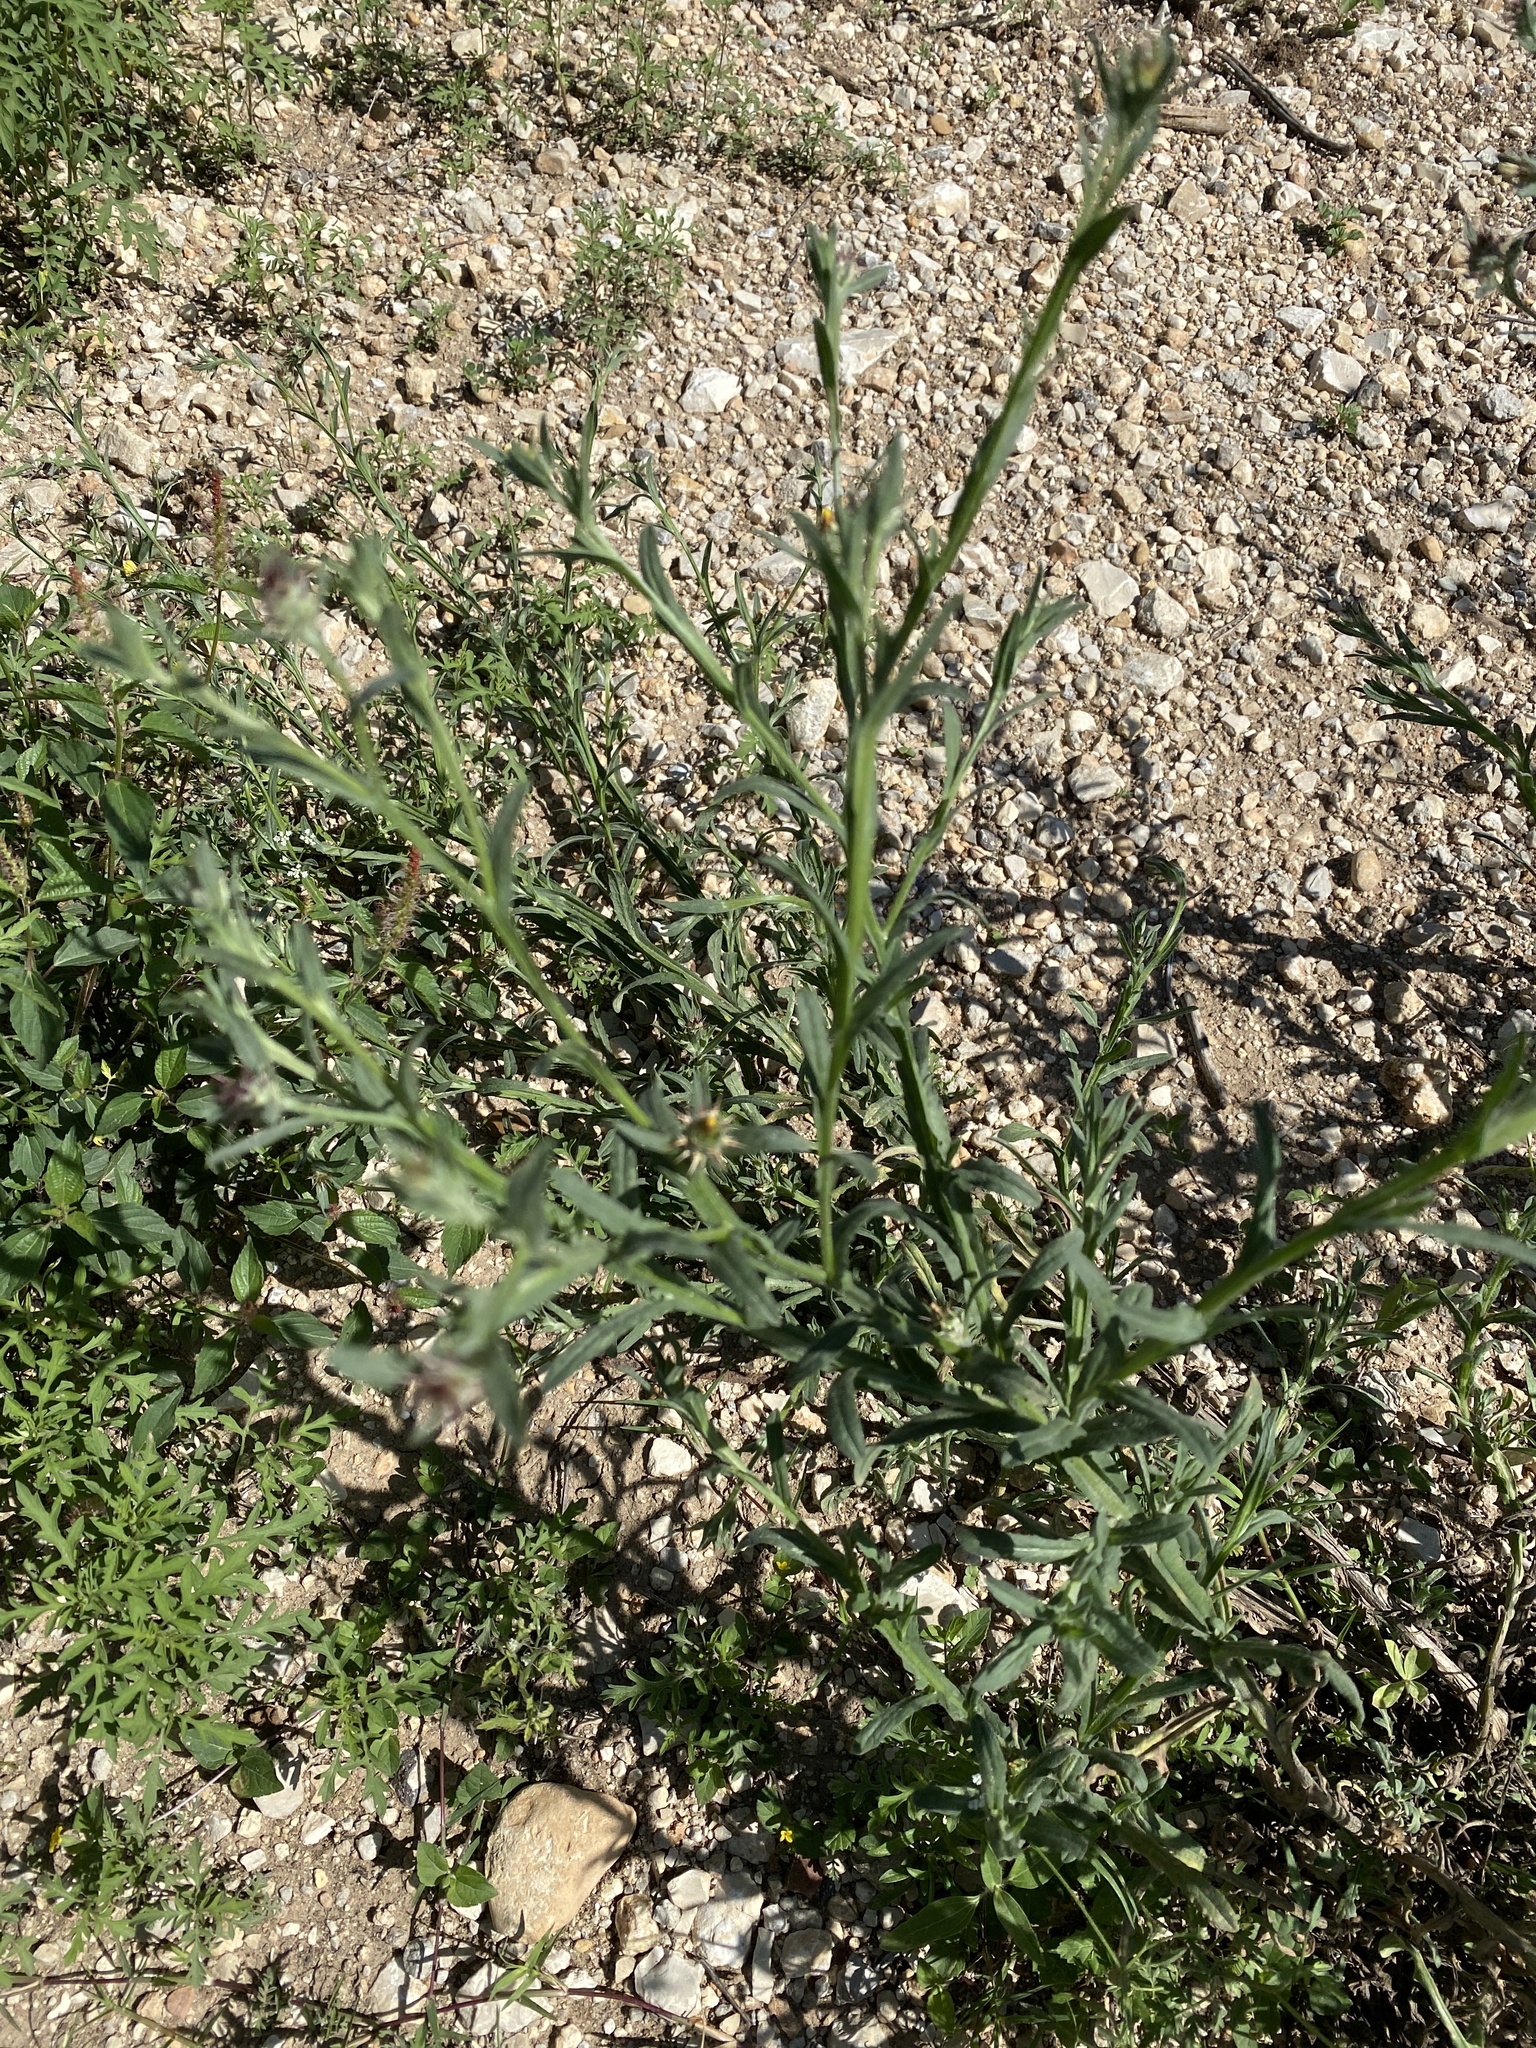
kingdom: Plantae
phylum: Tracheophyta
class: Magnoliopsida
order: Asterales
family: Asteraceae
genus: Centaurea
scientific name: Centaurea melitensis
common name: Maltese star-thistle
